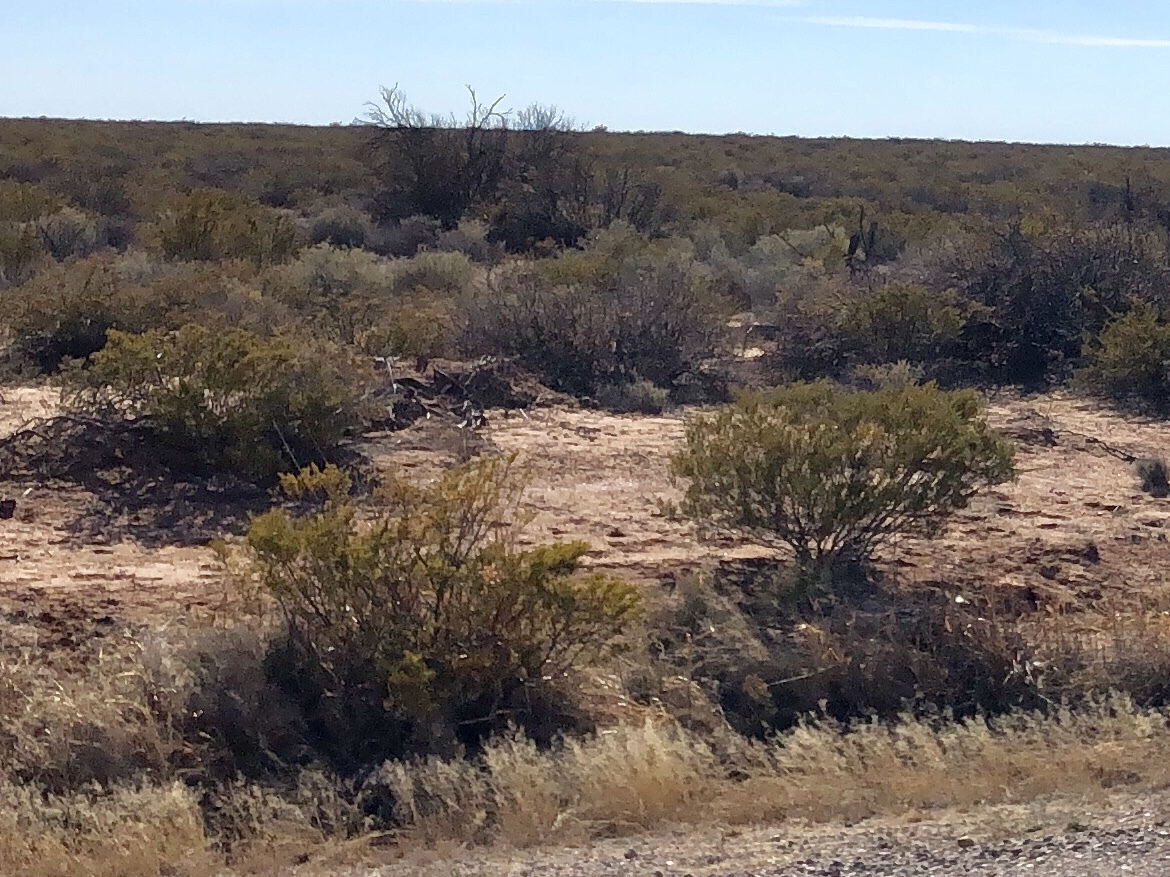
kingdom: Plantae
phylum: Tracheophyta
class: Magnoliopsida
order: Zygophyllales
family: Zygophyllaceae
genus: Larrea
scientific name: Larrea tridentata
